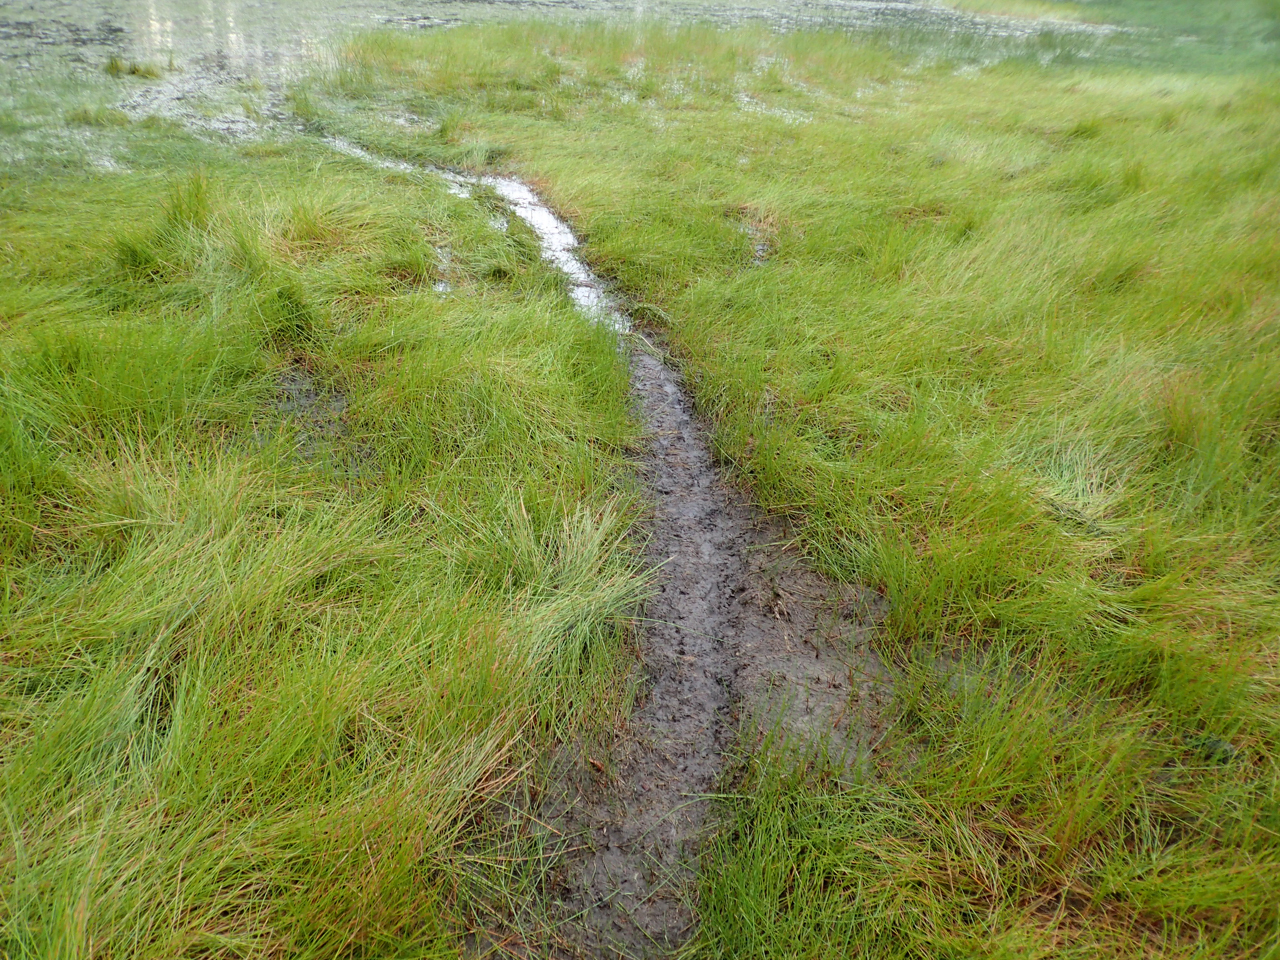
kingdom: Animalia
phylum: Chordata
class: Crocodylia
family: Alligatoridae
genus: Alligator
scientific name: Alligator mississippiensis
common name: American alligator
